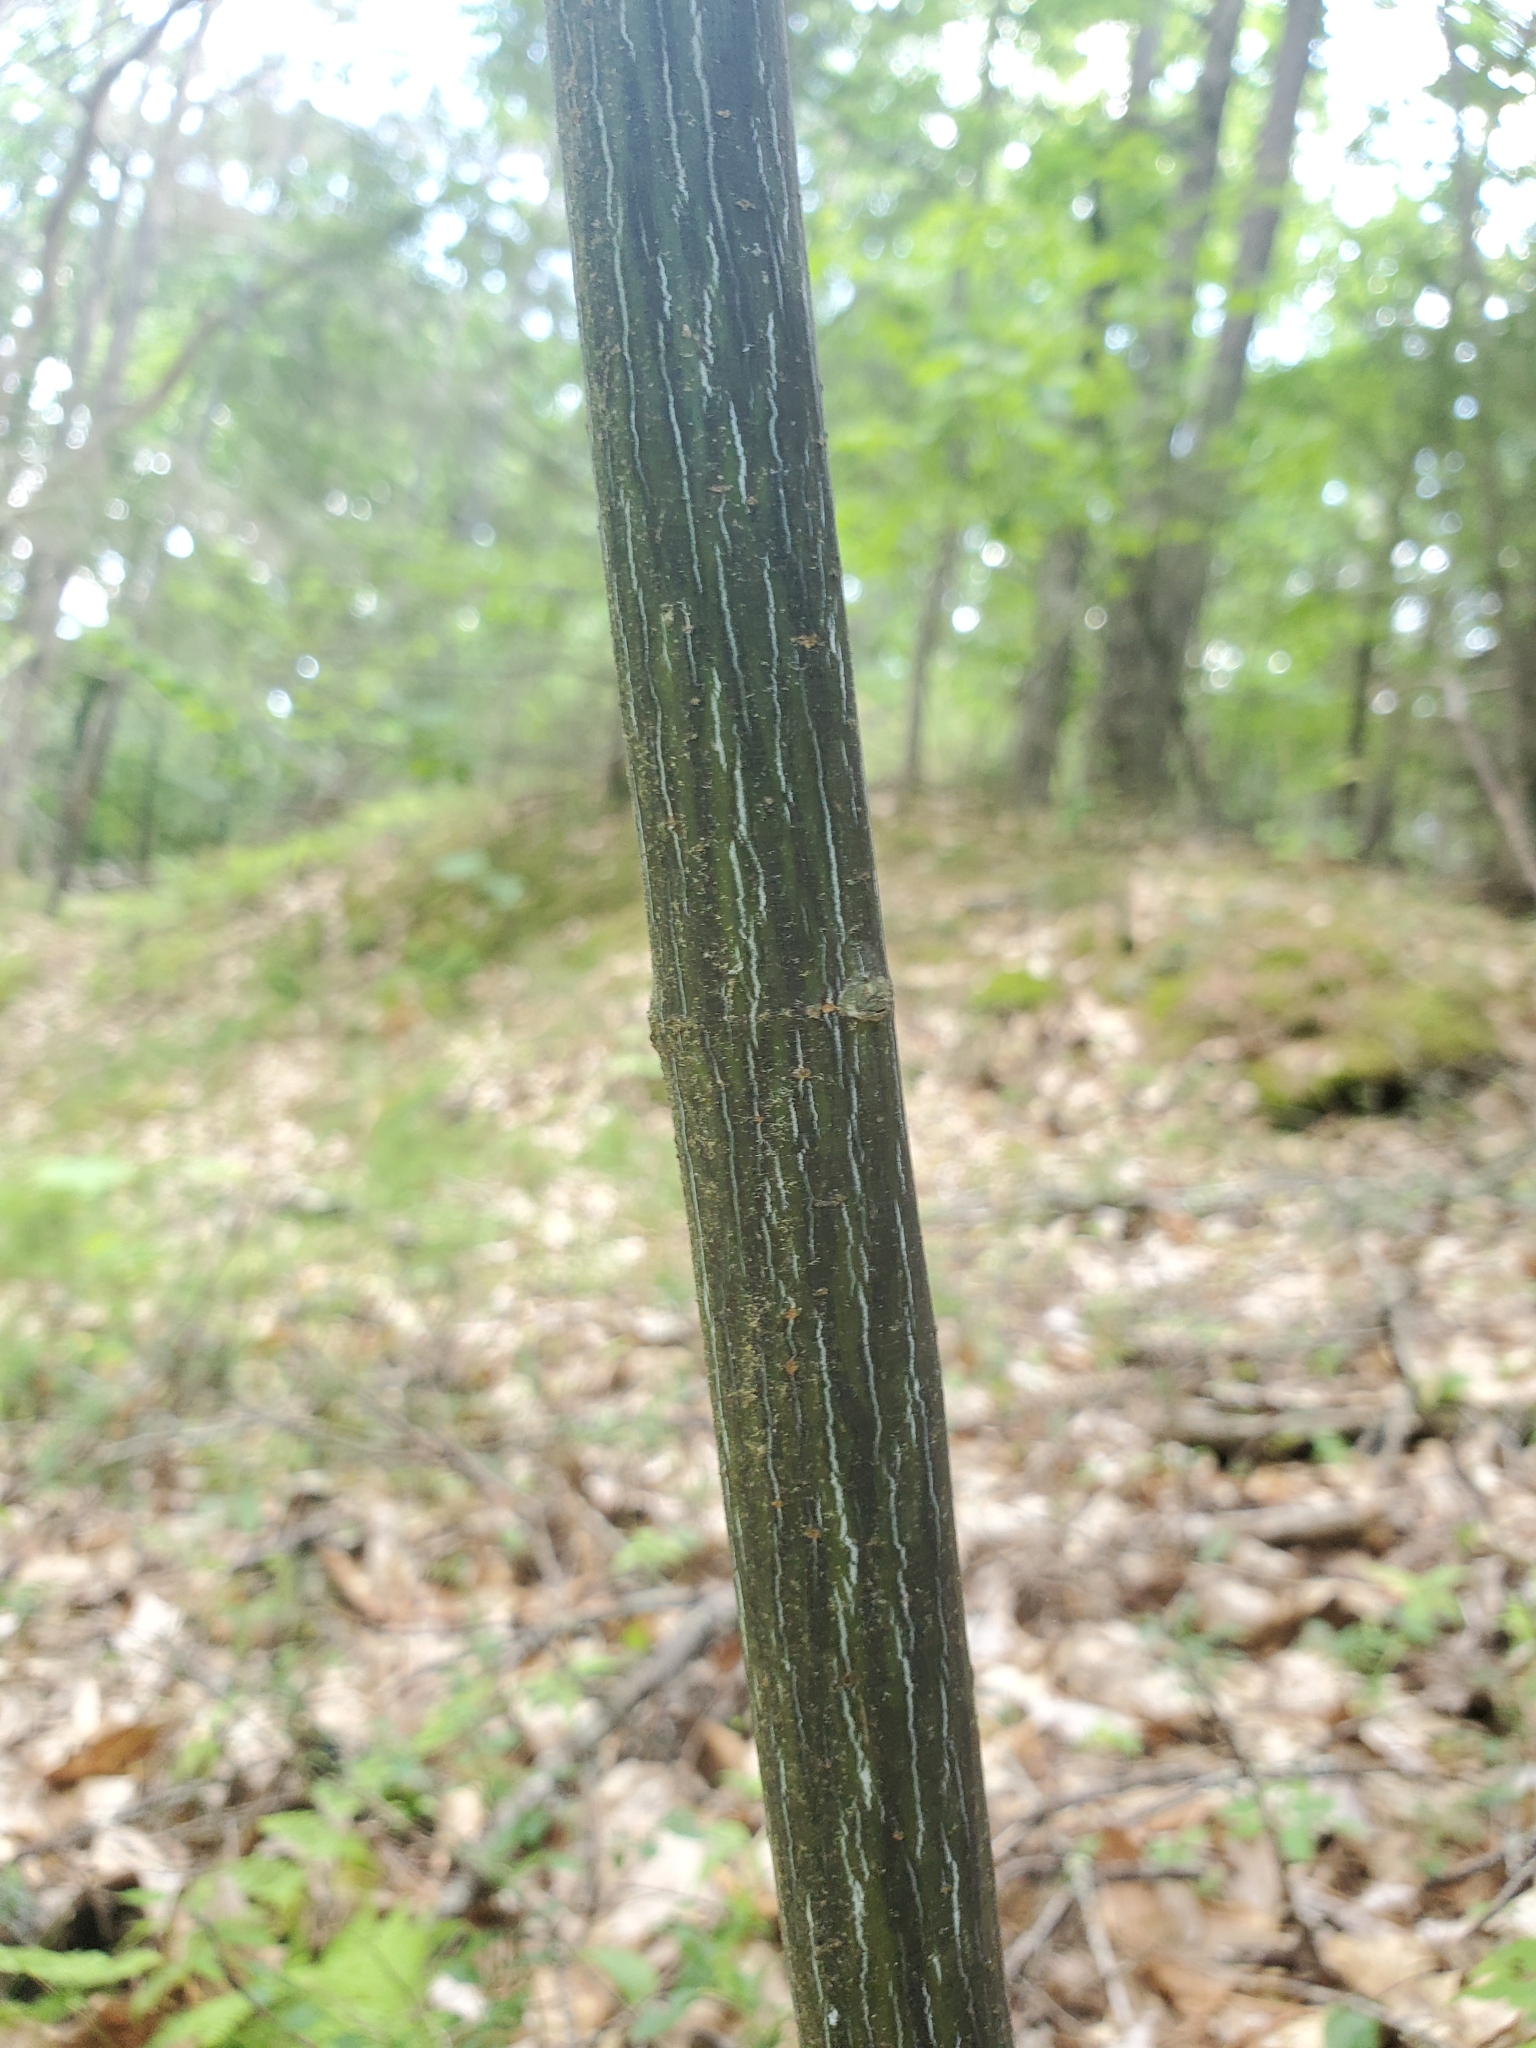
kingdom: Plantae
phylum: Tracheophyta
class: Magnoliopsida
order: Sapindales
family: Sapindaceae
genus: Acer
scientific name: Acer pensylvanicum
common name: Moosewood
